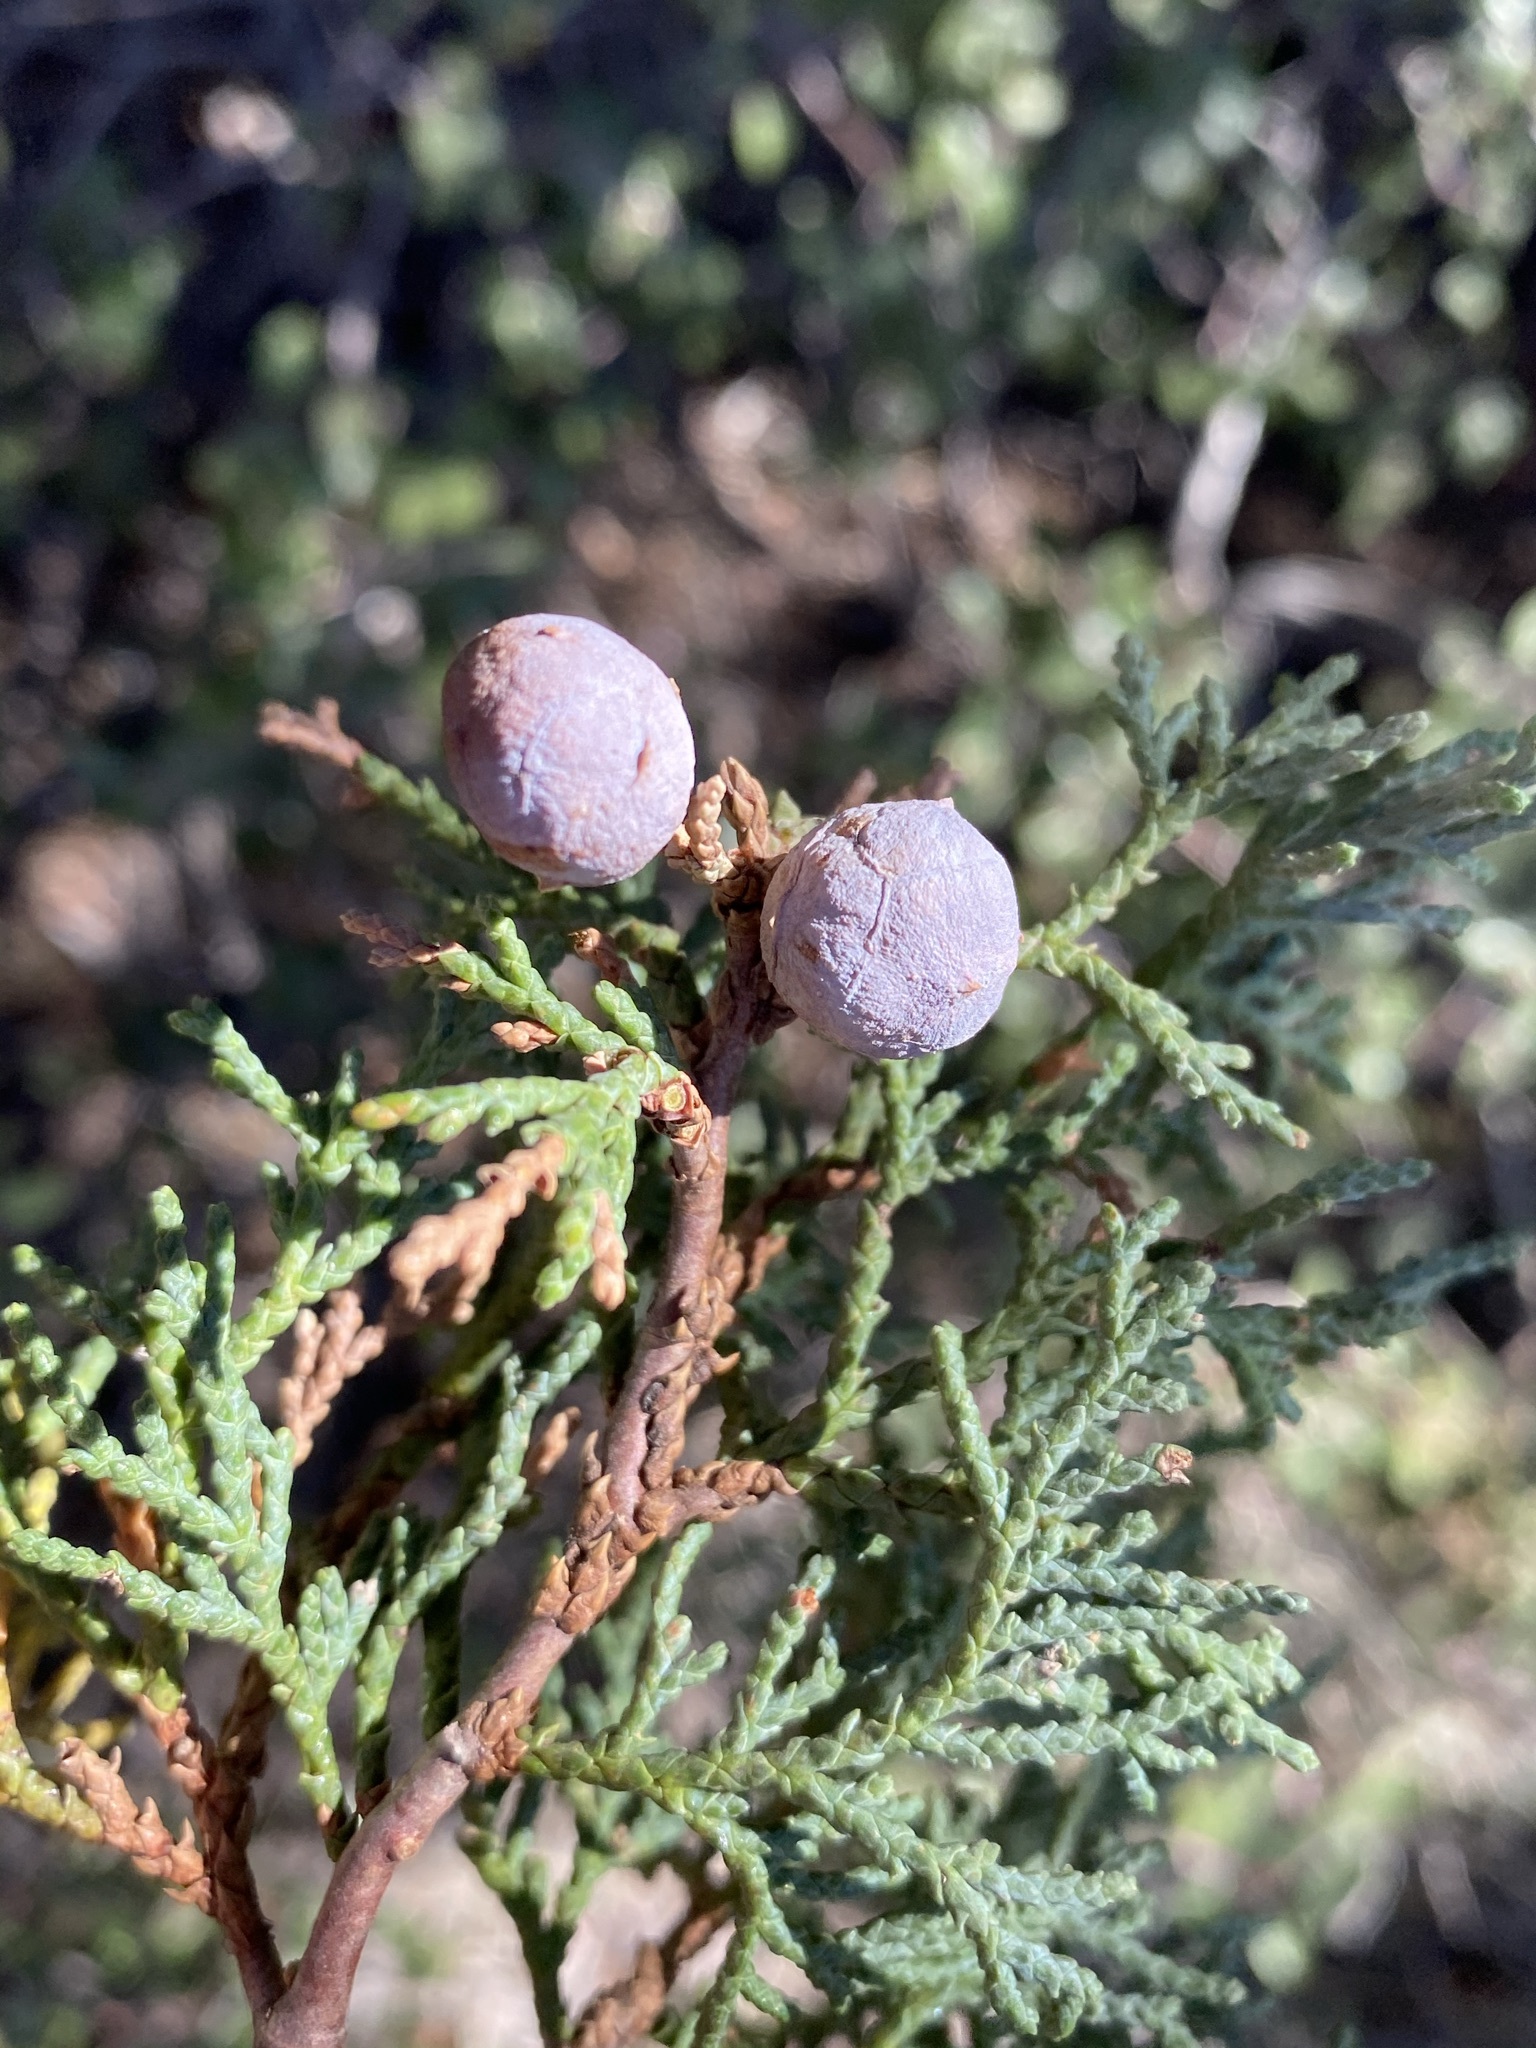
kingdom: Plantae
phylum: Tracheophyta
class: Pinopsida
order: Pinales
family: Cupressaceae
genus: Juniperus
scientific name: Juniperus deppeana
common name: Alligator juniper
